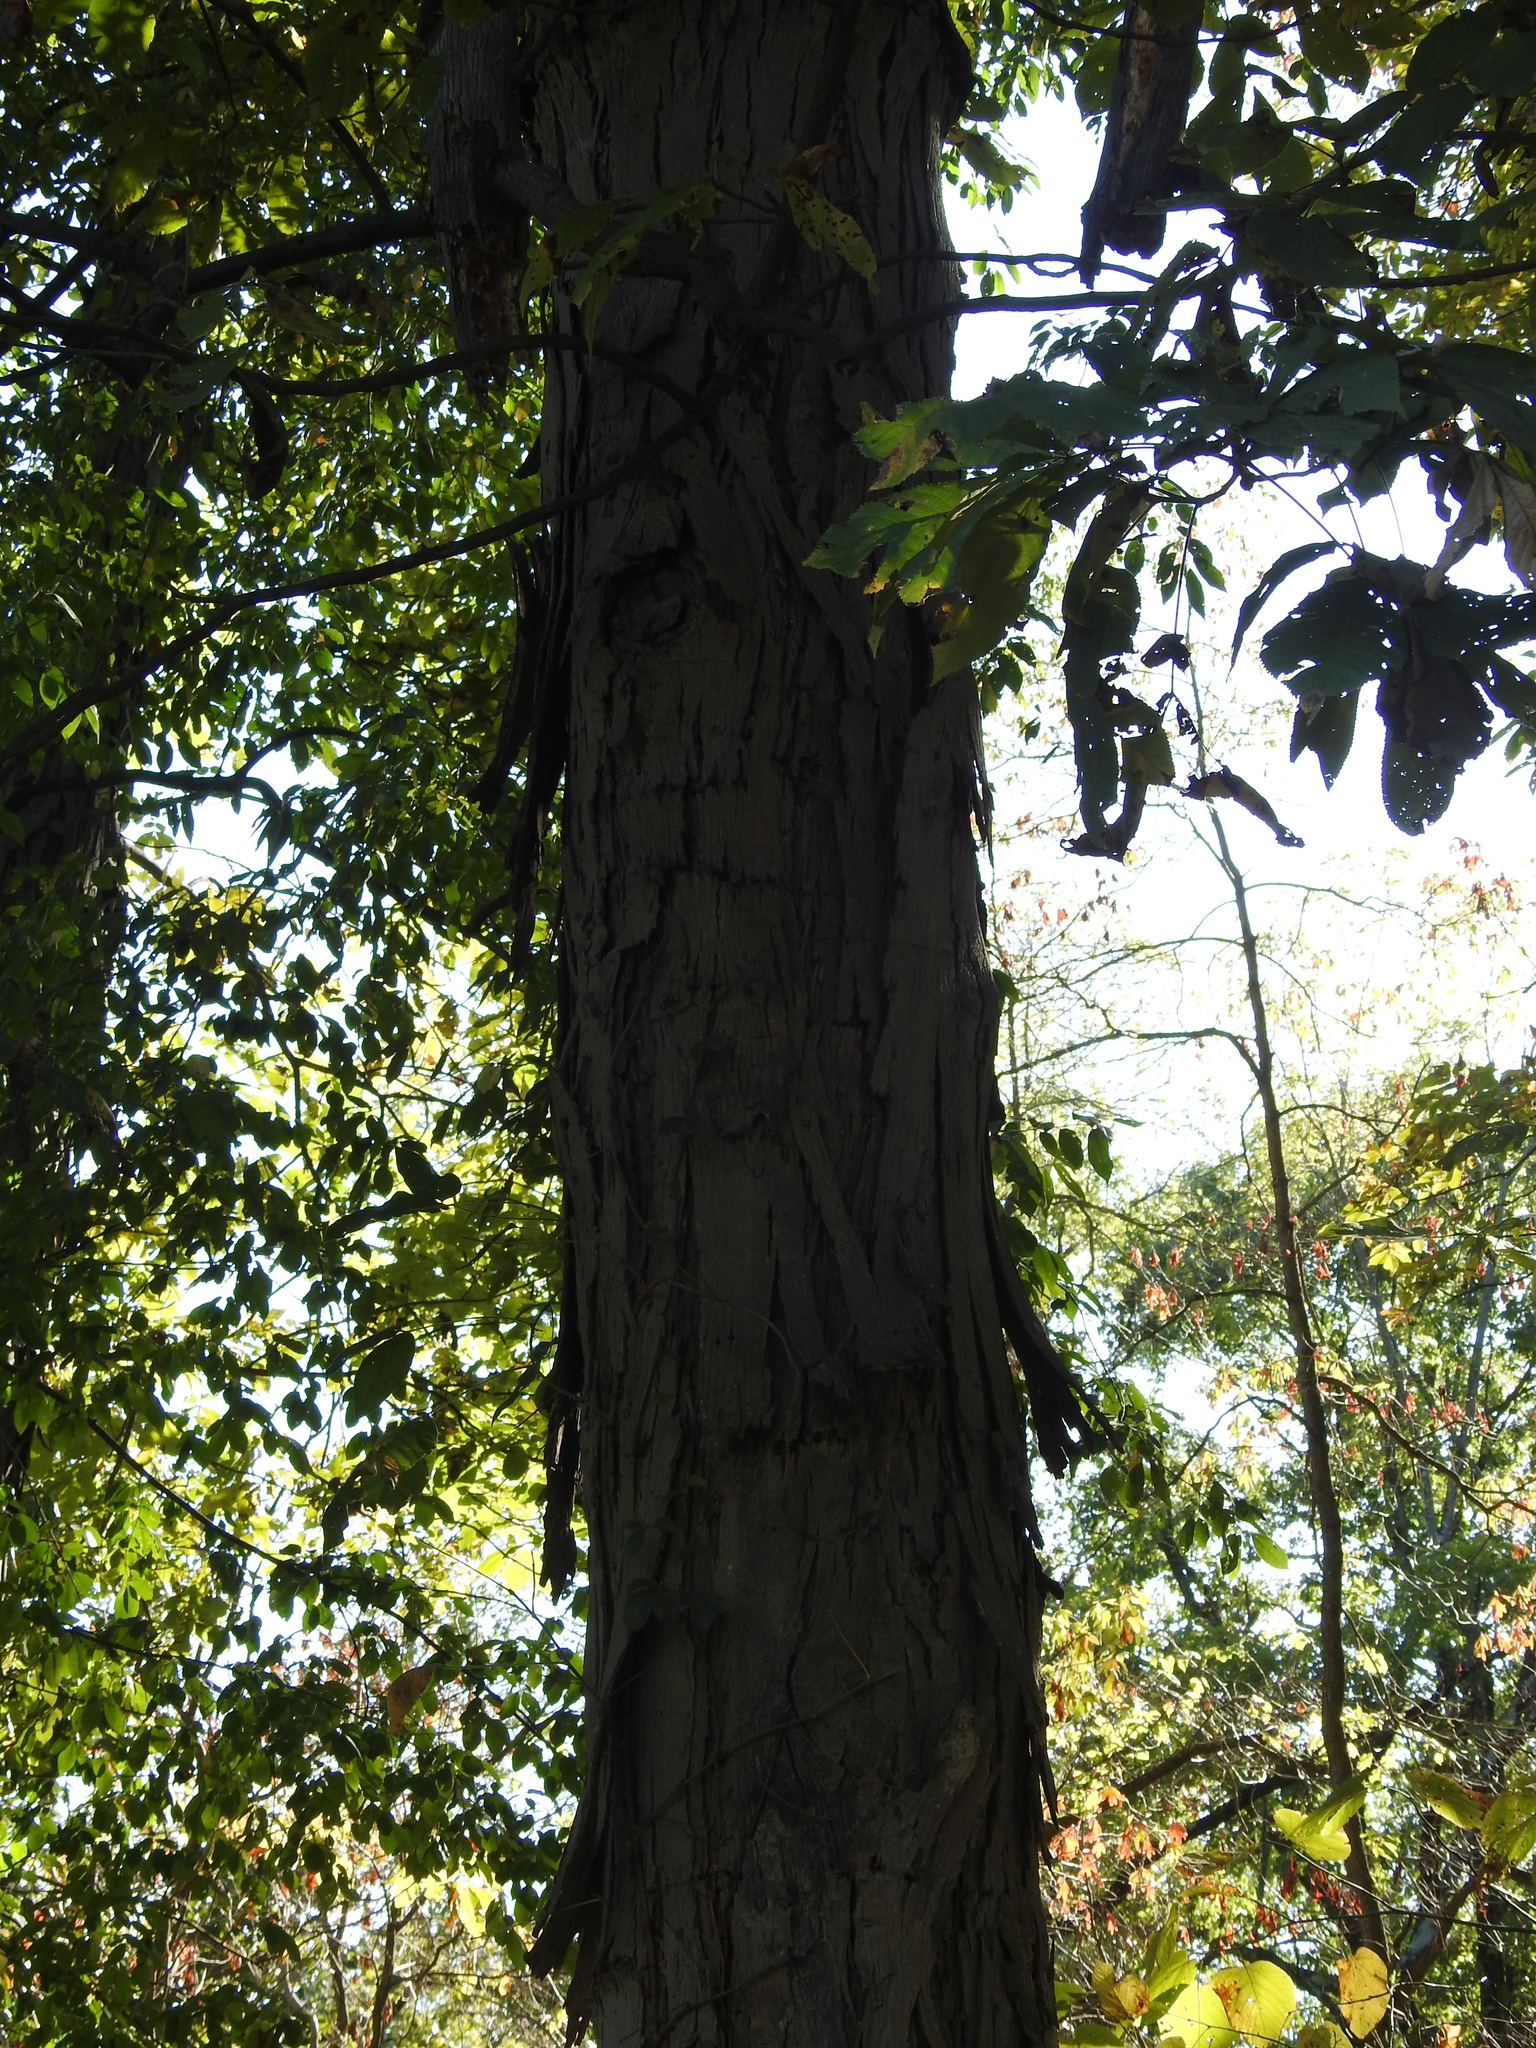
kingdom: Plantae
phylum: Tracheophyta
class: Magnoliopsida
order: Fagales
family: Juglandaceae
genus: Carya
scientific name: Carya ovata
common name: Shagbark hickory
